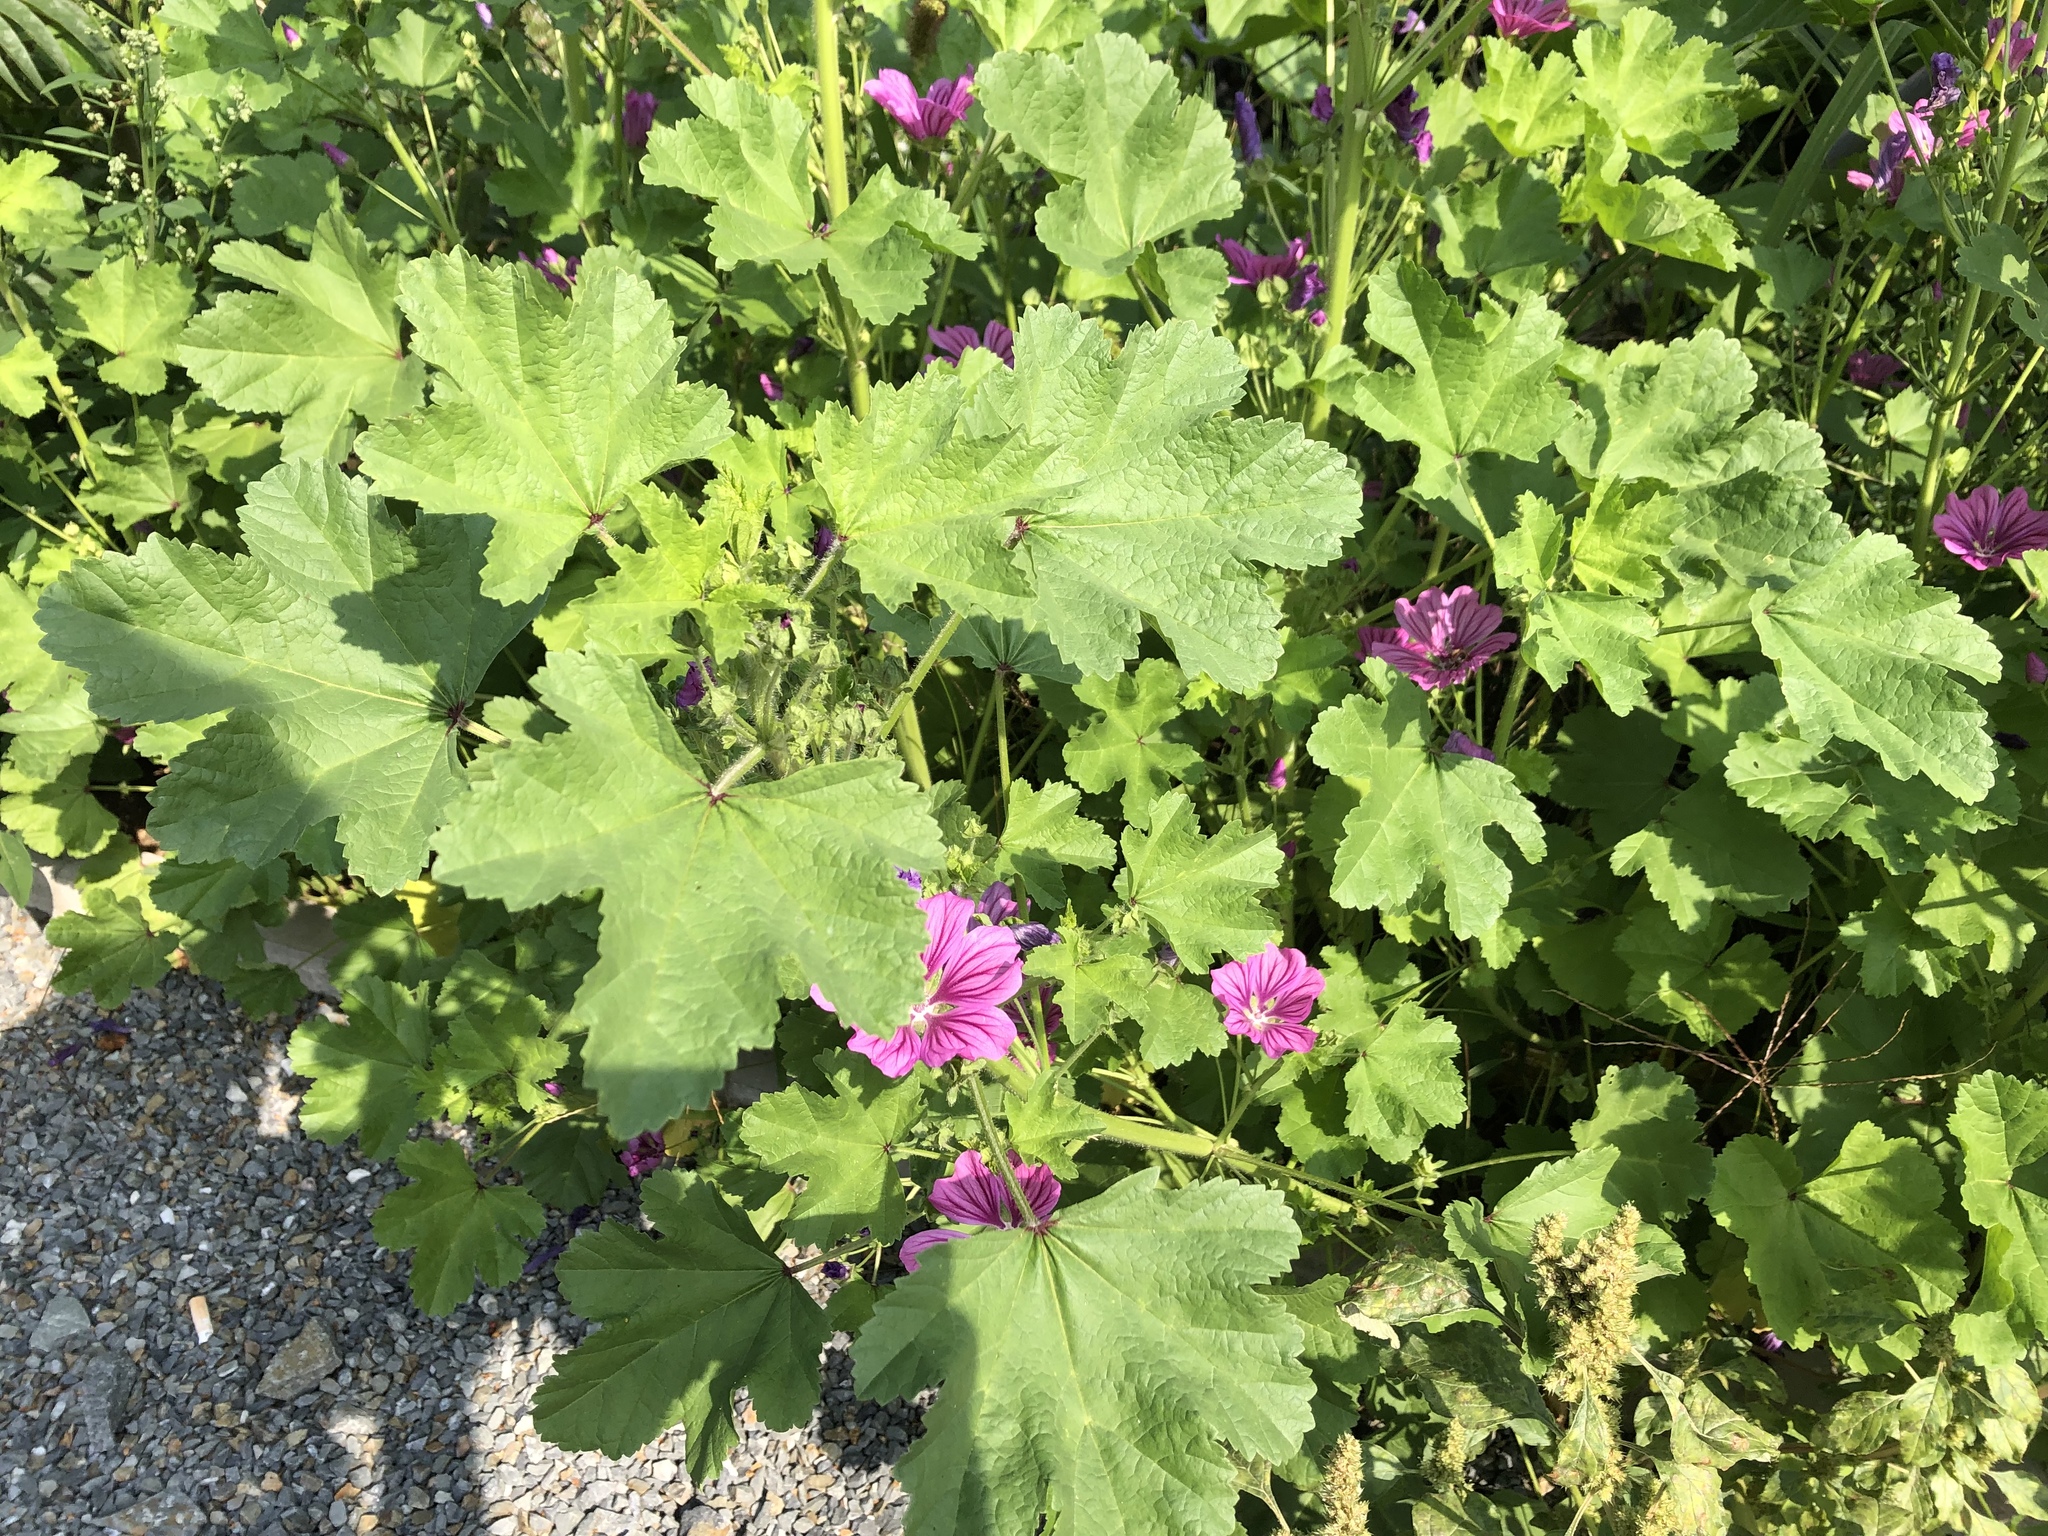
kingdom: Plantae
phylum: Tracheophyta
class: Magnoliopsida
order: Malvales
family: Malvaceae
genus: Malva
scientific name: Malva sylvestris
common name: Common mallow
